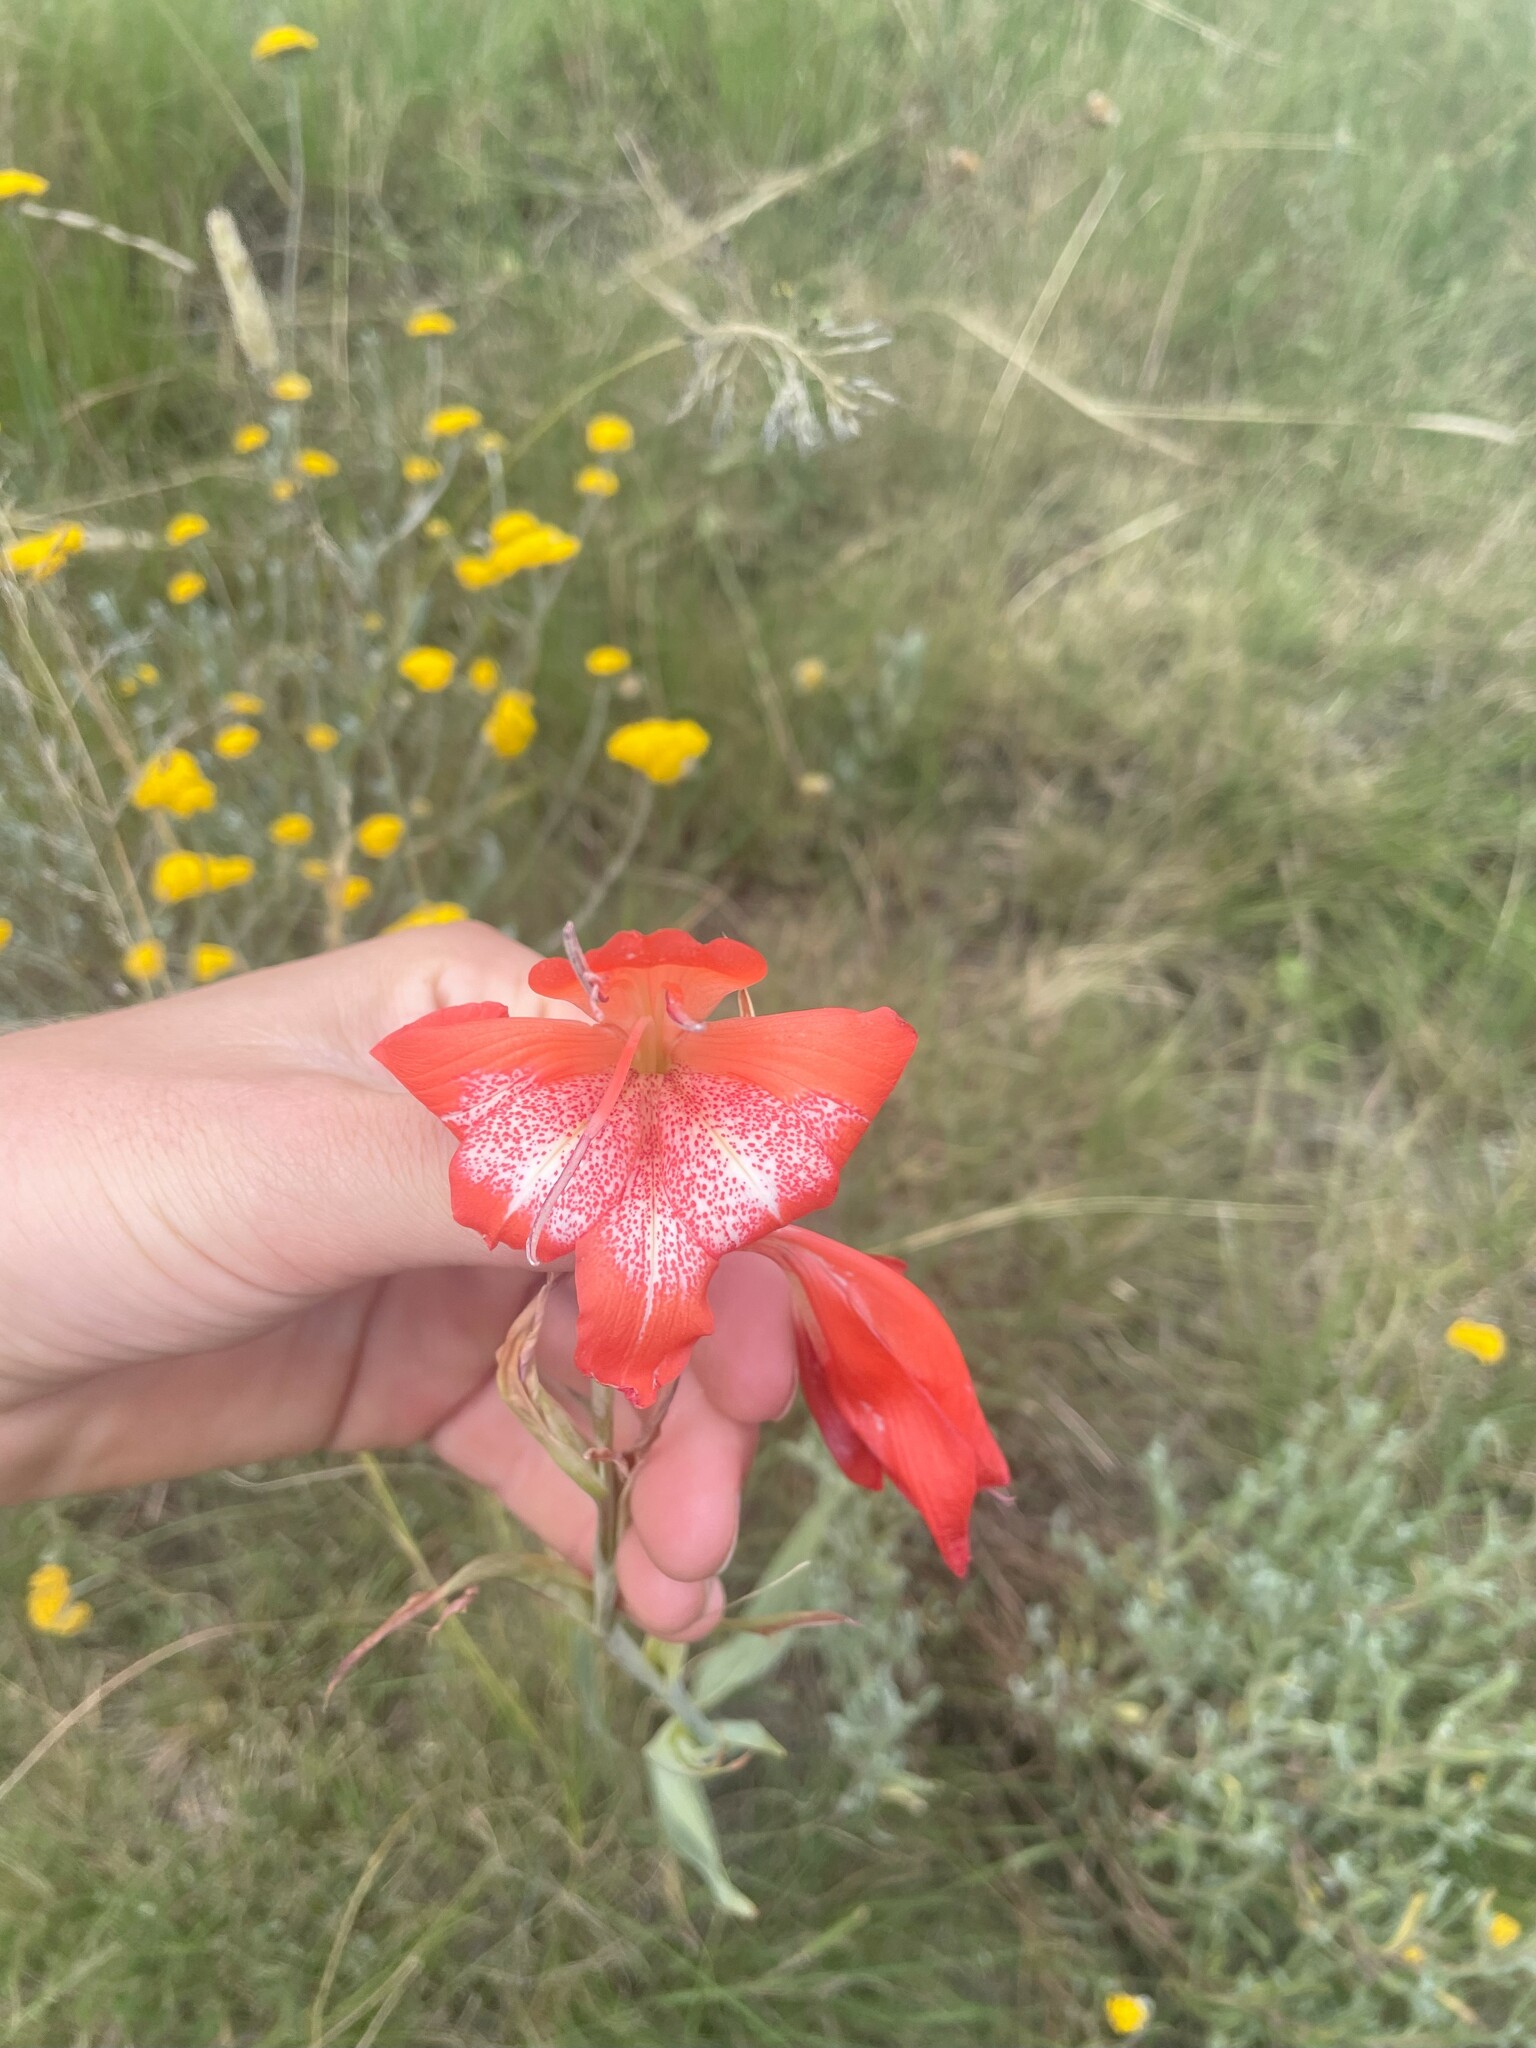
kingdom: Plantae
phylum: Tracheophyta
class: Liliopsida
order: Asparagales
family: Iridaceae
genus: Gladiolus
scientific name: Gladiolus saundersii
